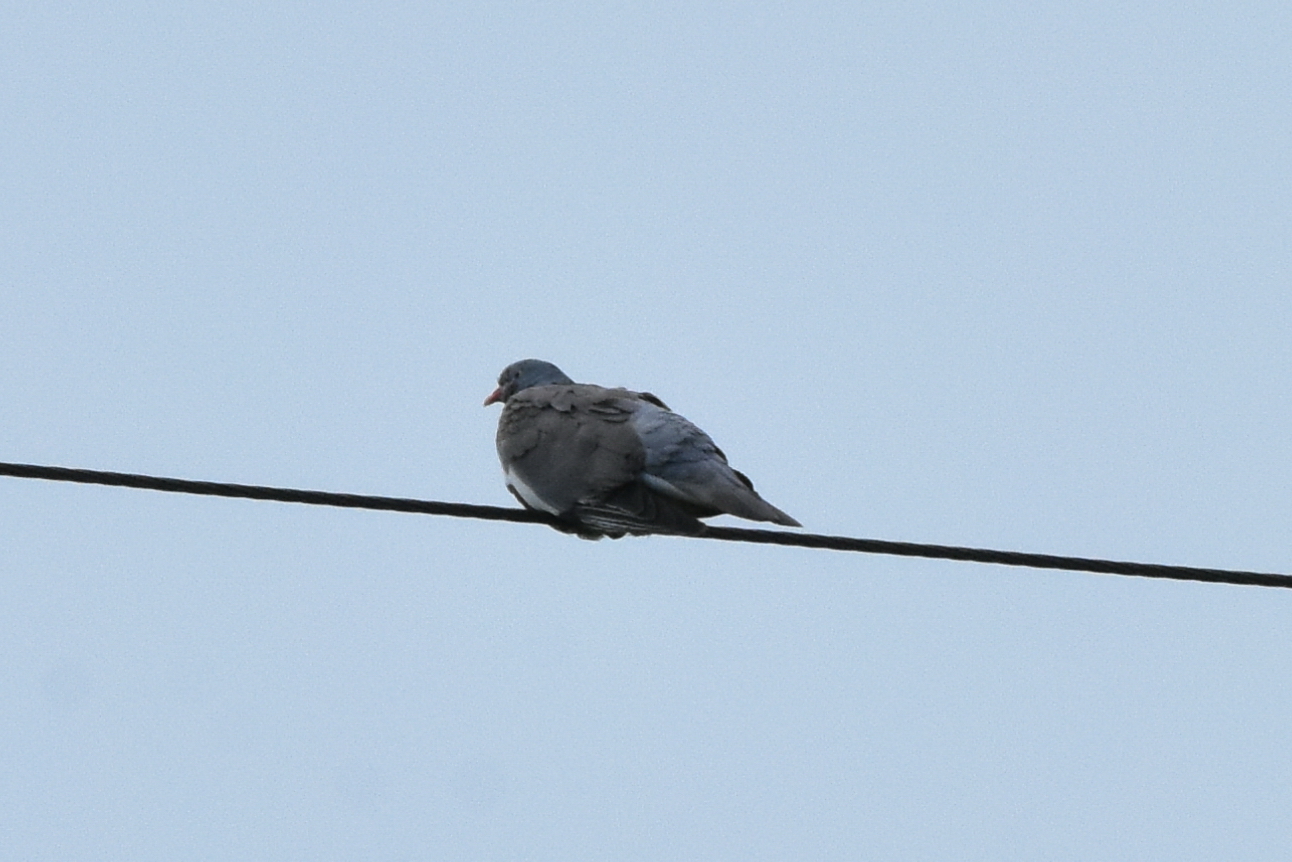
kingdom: Animalia
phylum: Chordata
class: Aves
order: Columbiformes
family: Columbidae
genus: Columba
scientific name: Columba palumbus
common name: Common wood pigeon
